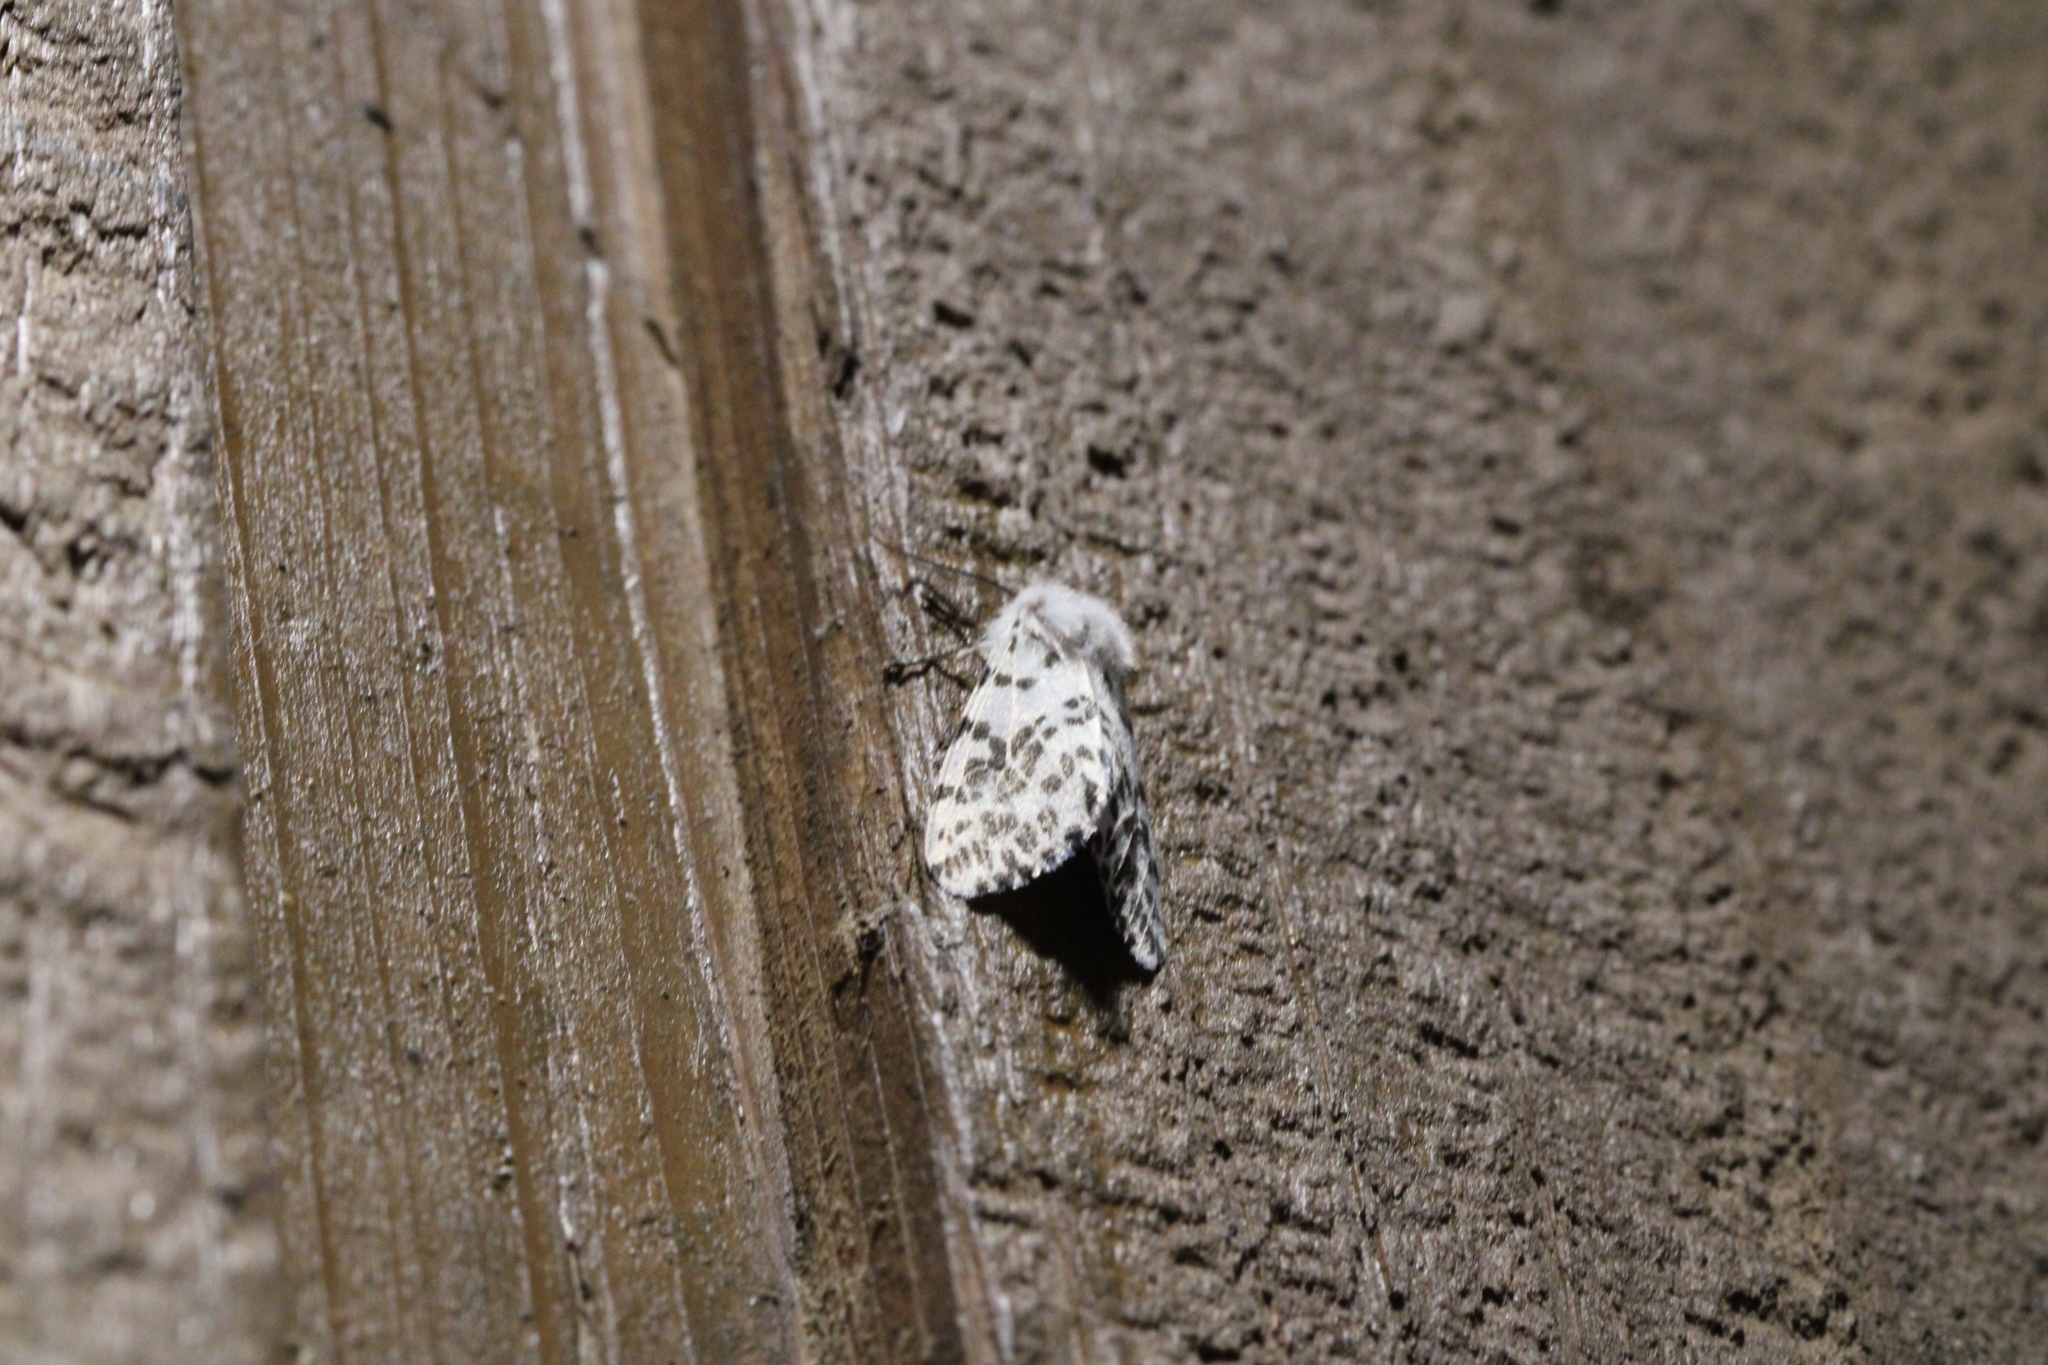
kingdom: Animalia
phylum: Arthropoda
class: Insecta
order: Lepidoptera
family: Erebidae
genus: Hyphantria
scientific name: Hyphantria cunea
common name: American white moth
